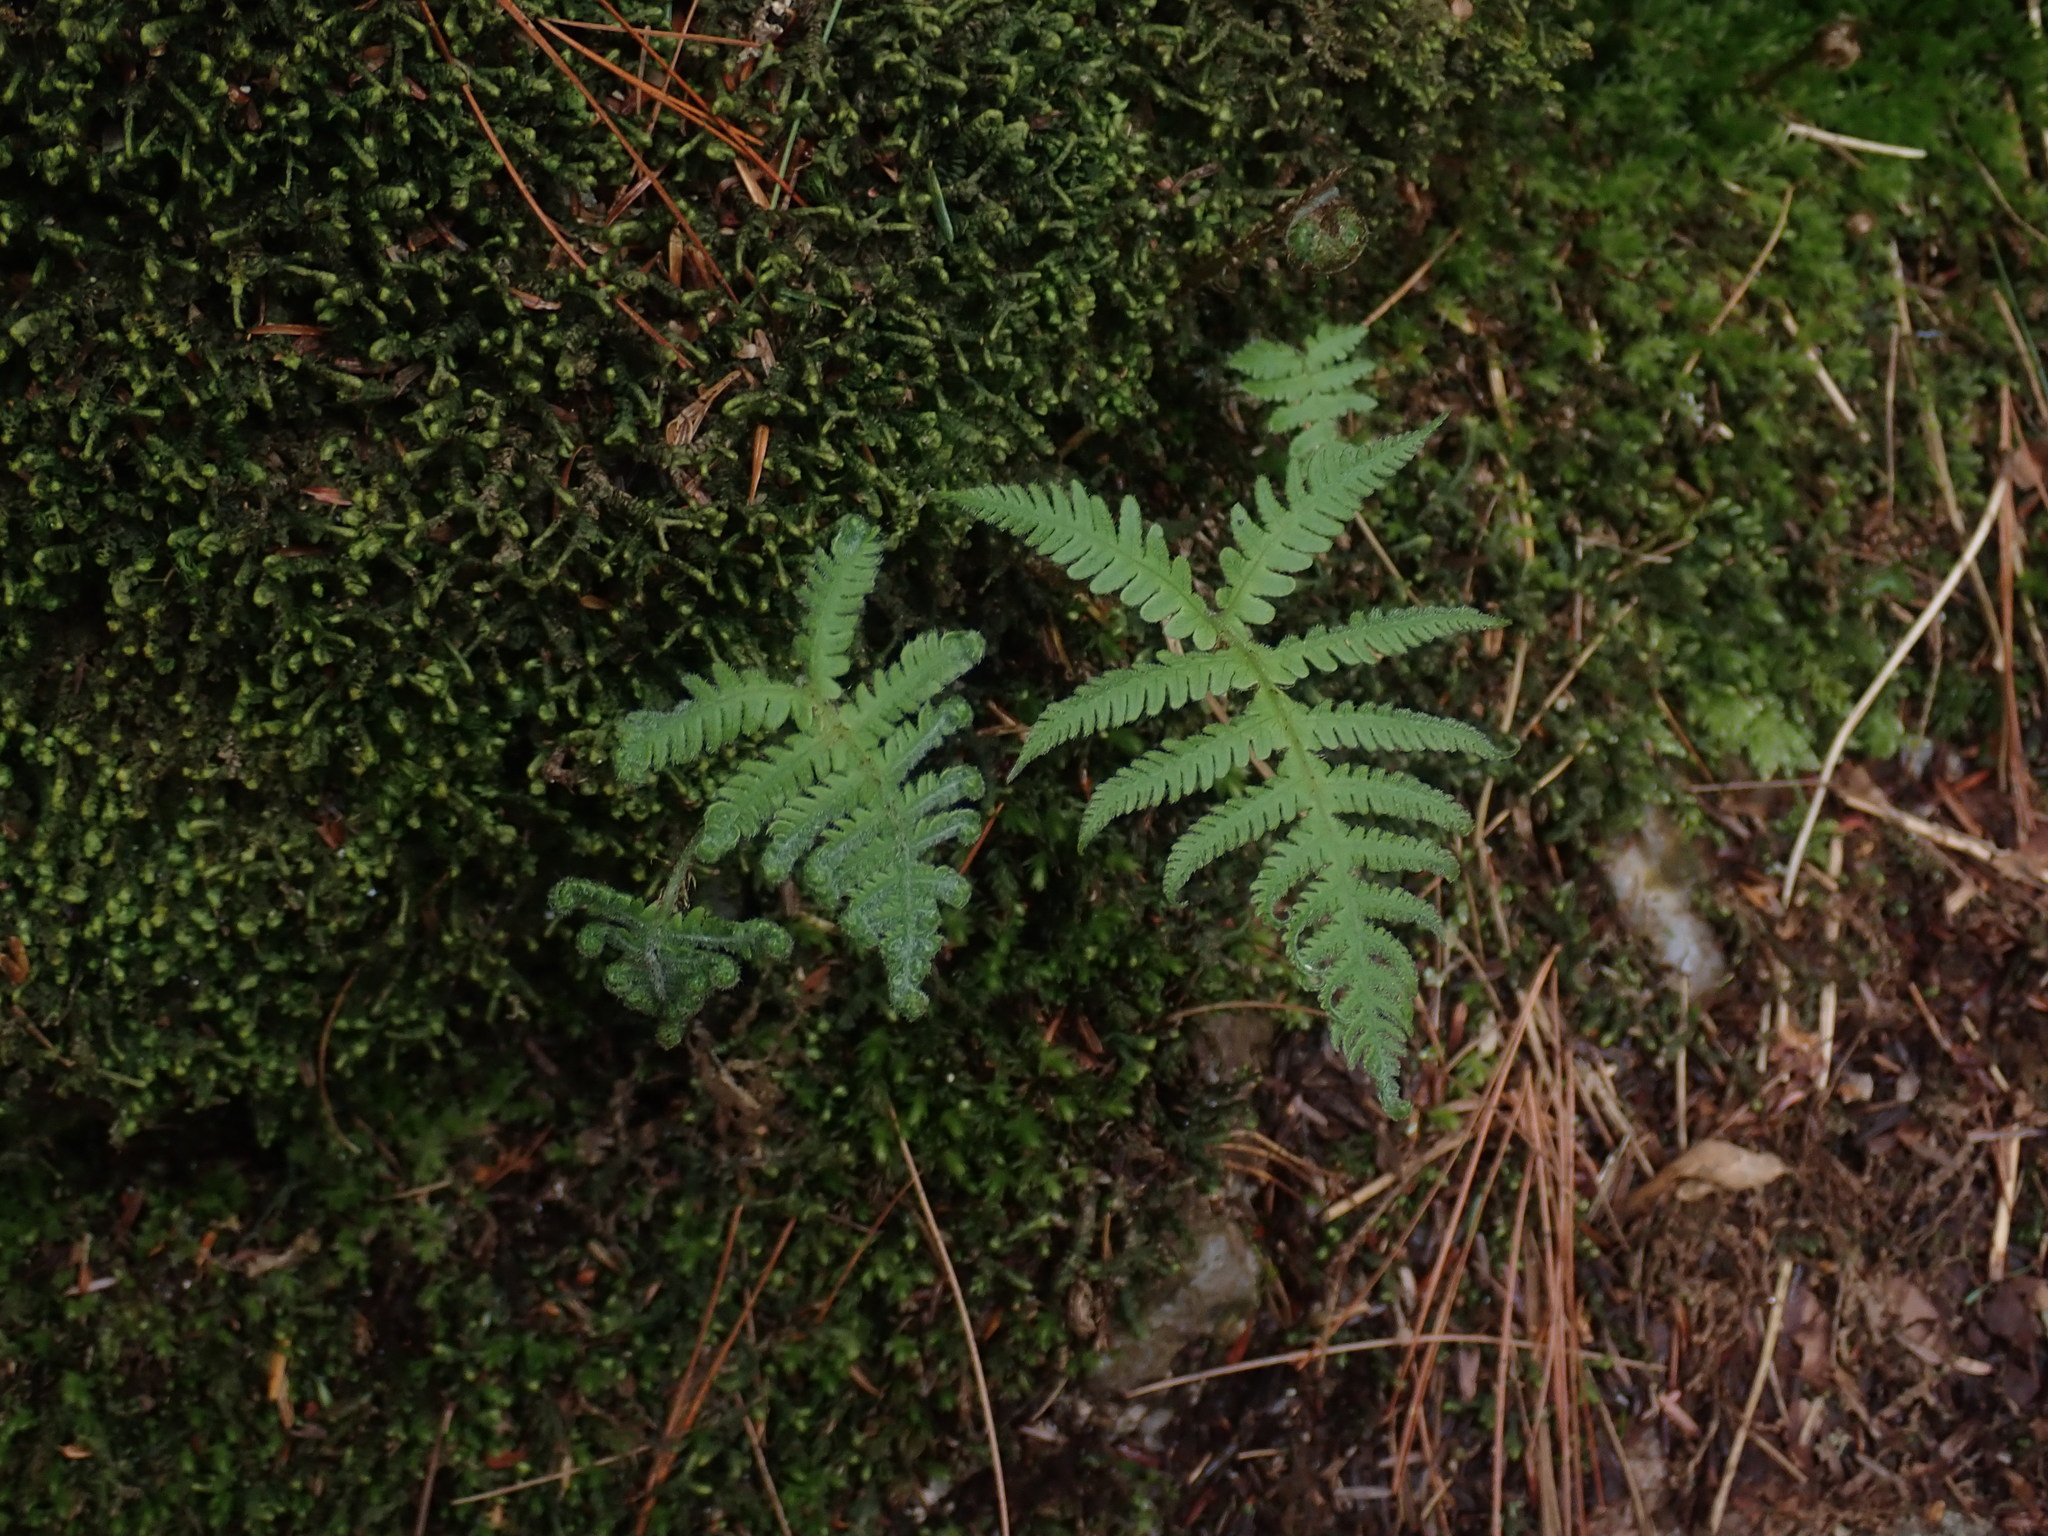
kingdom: Plantae
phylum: Tracheophyta
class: Polypodiopsida
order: Polypodiales
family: Thelypteridaceae
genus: Phegopteris
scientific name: Phegopteris connectilis
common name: Beech fern
